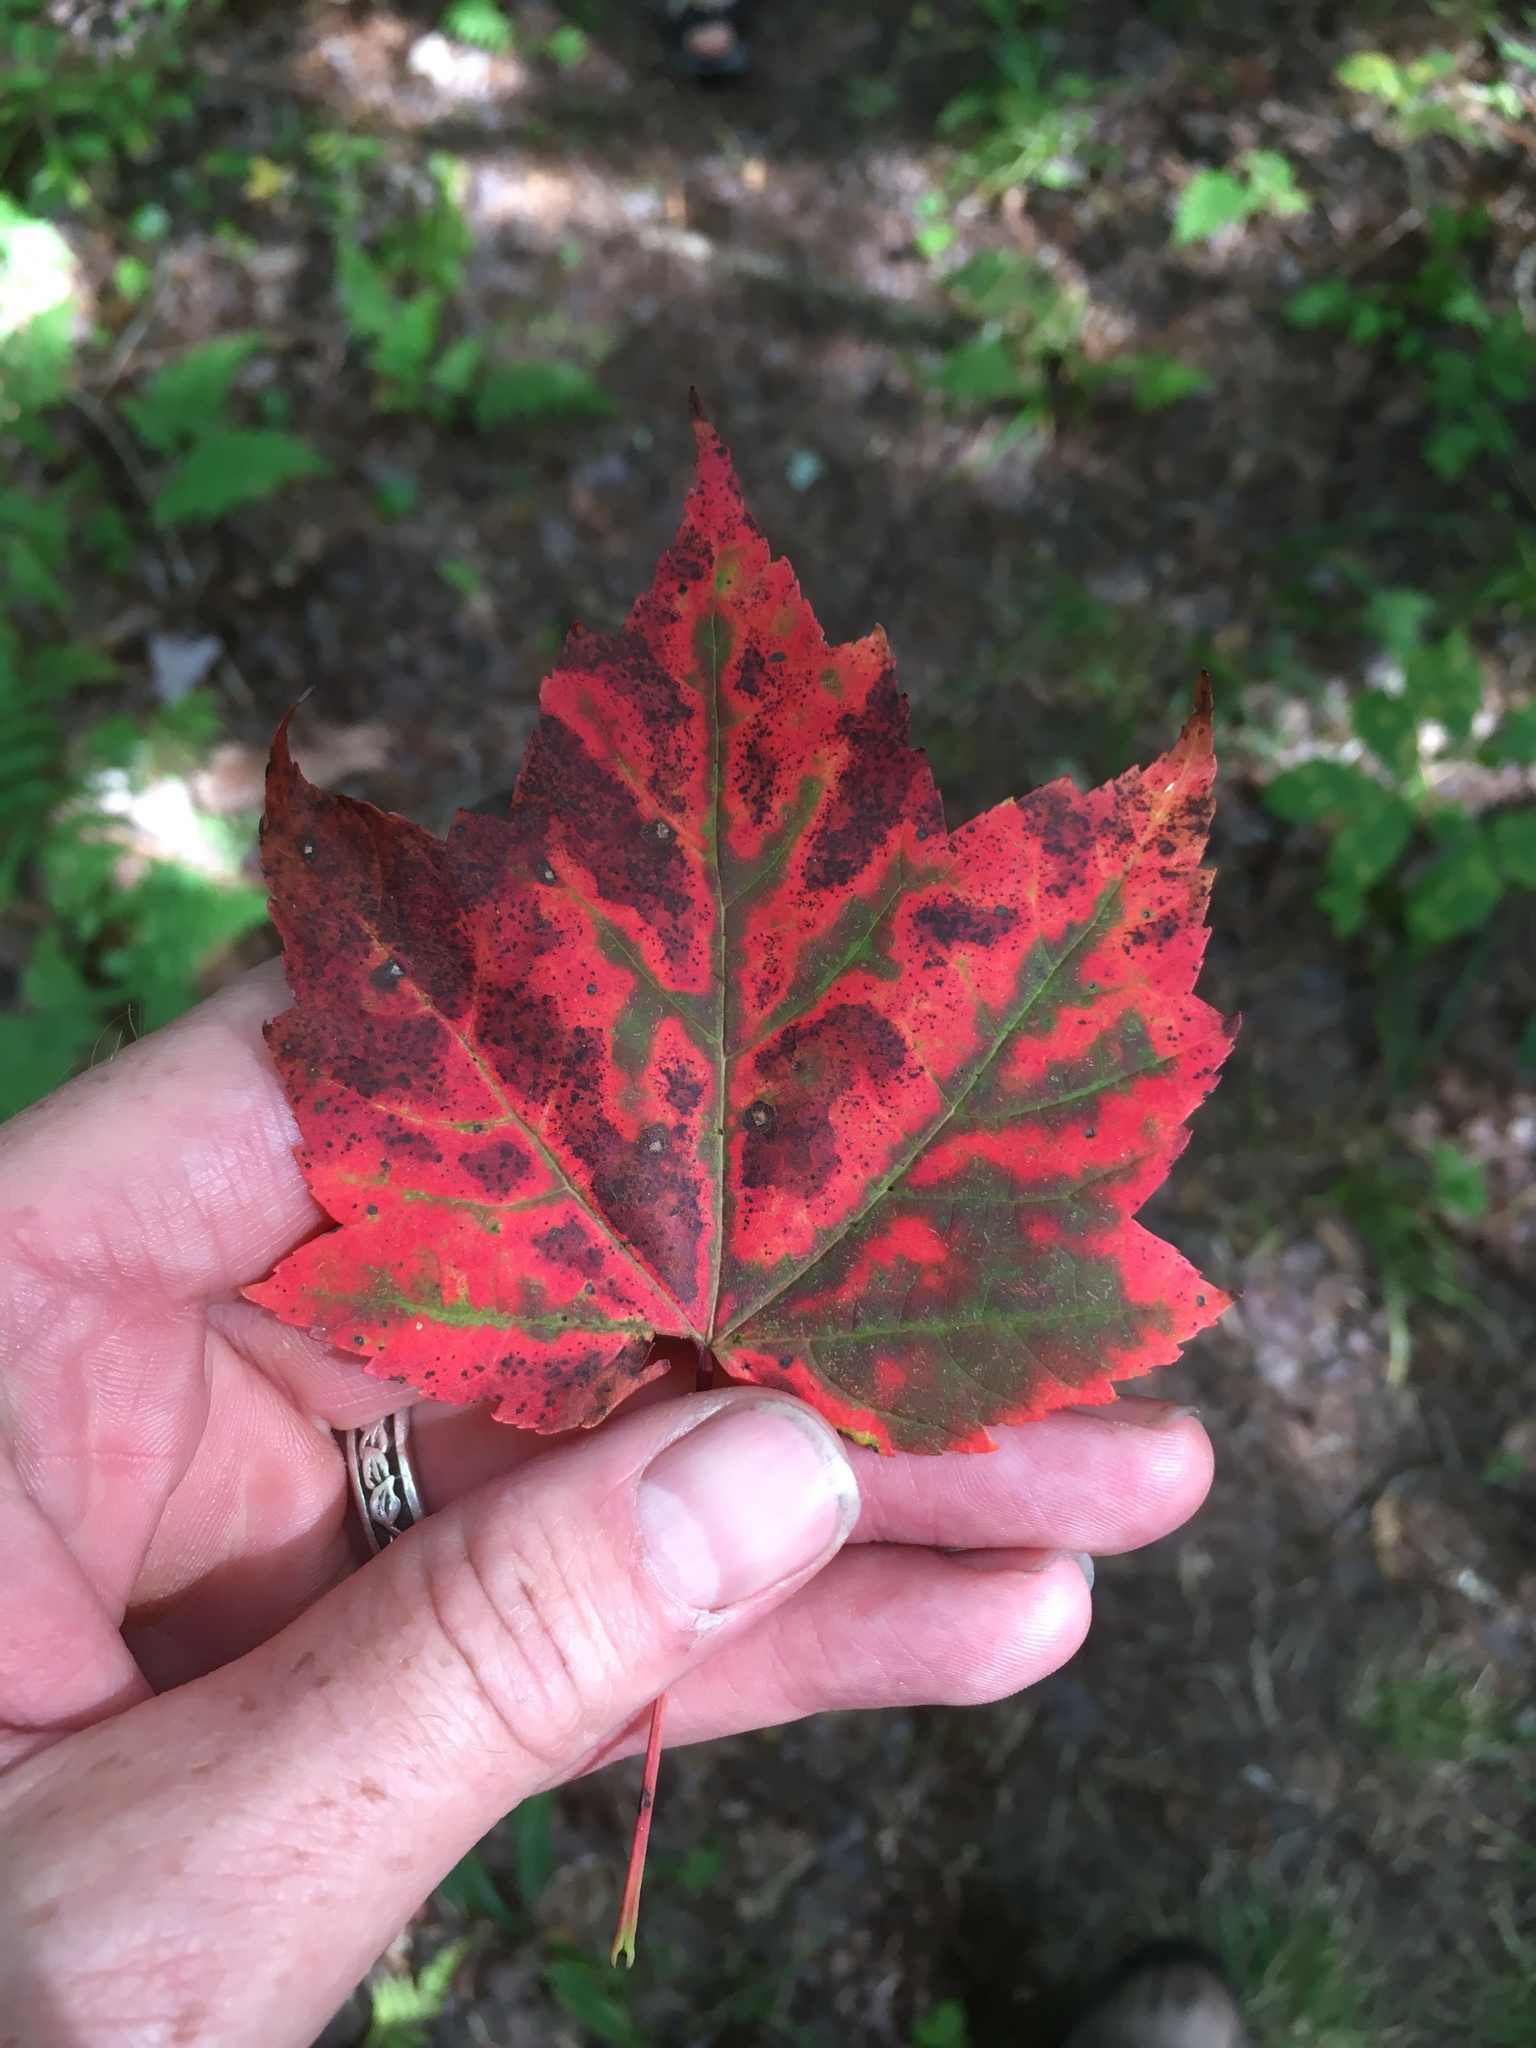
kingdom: Plantae
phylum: Tracheophyta
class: Magnoliopsida
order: Sapindales
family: Sapindaceae
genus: Acer
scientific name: Acer rubrum
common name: Red maple
